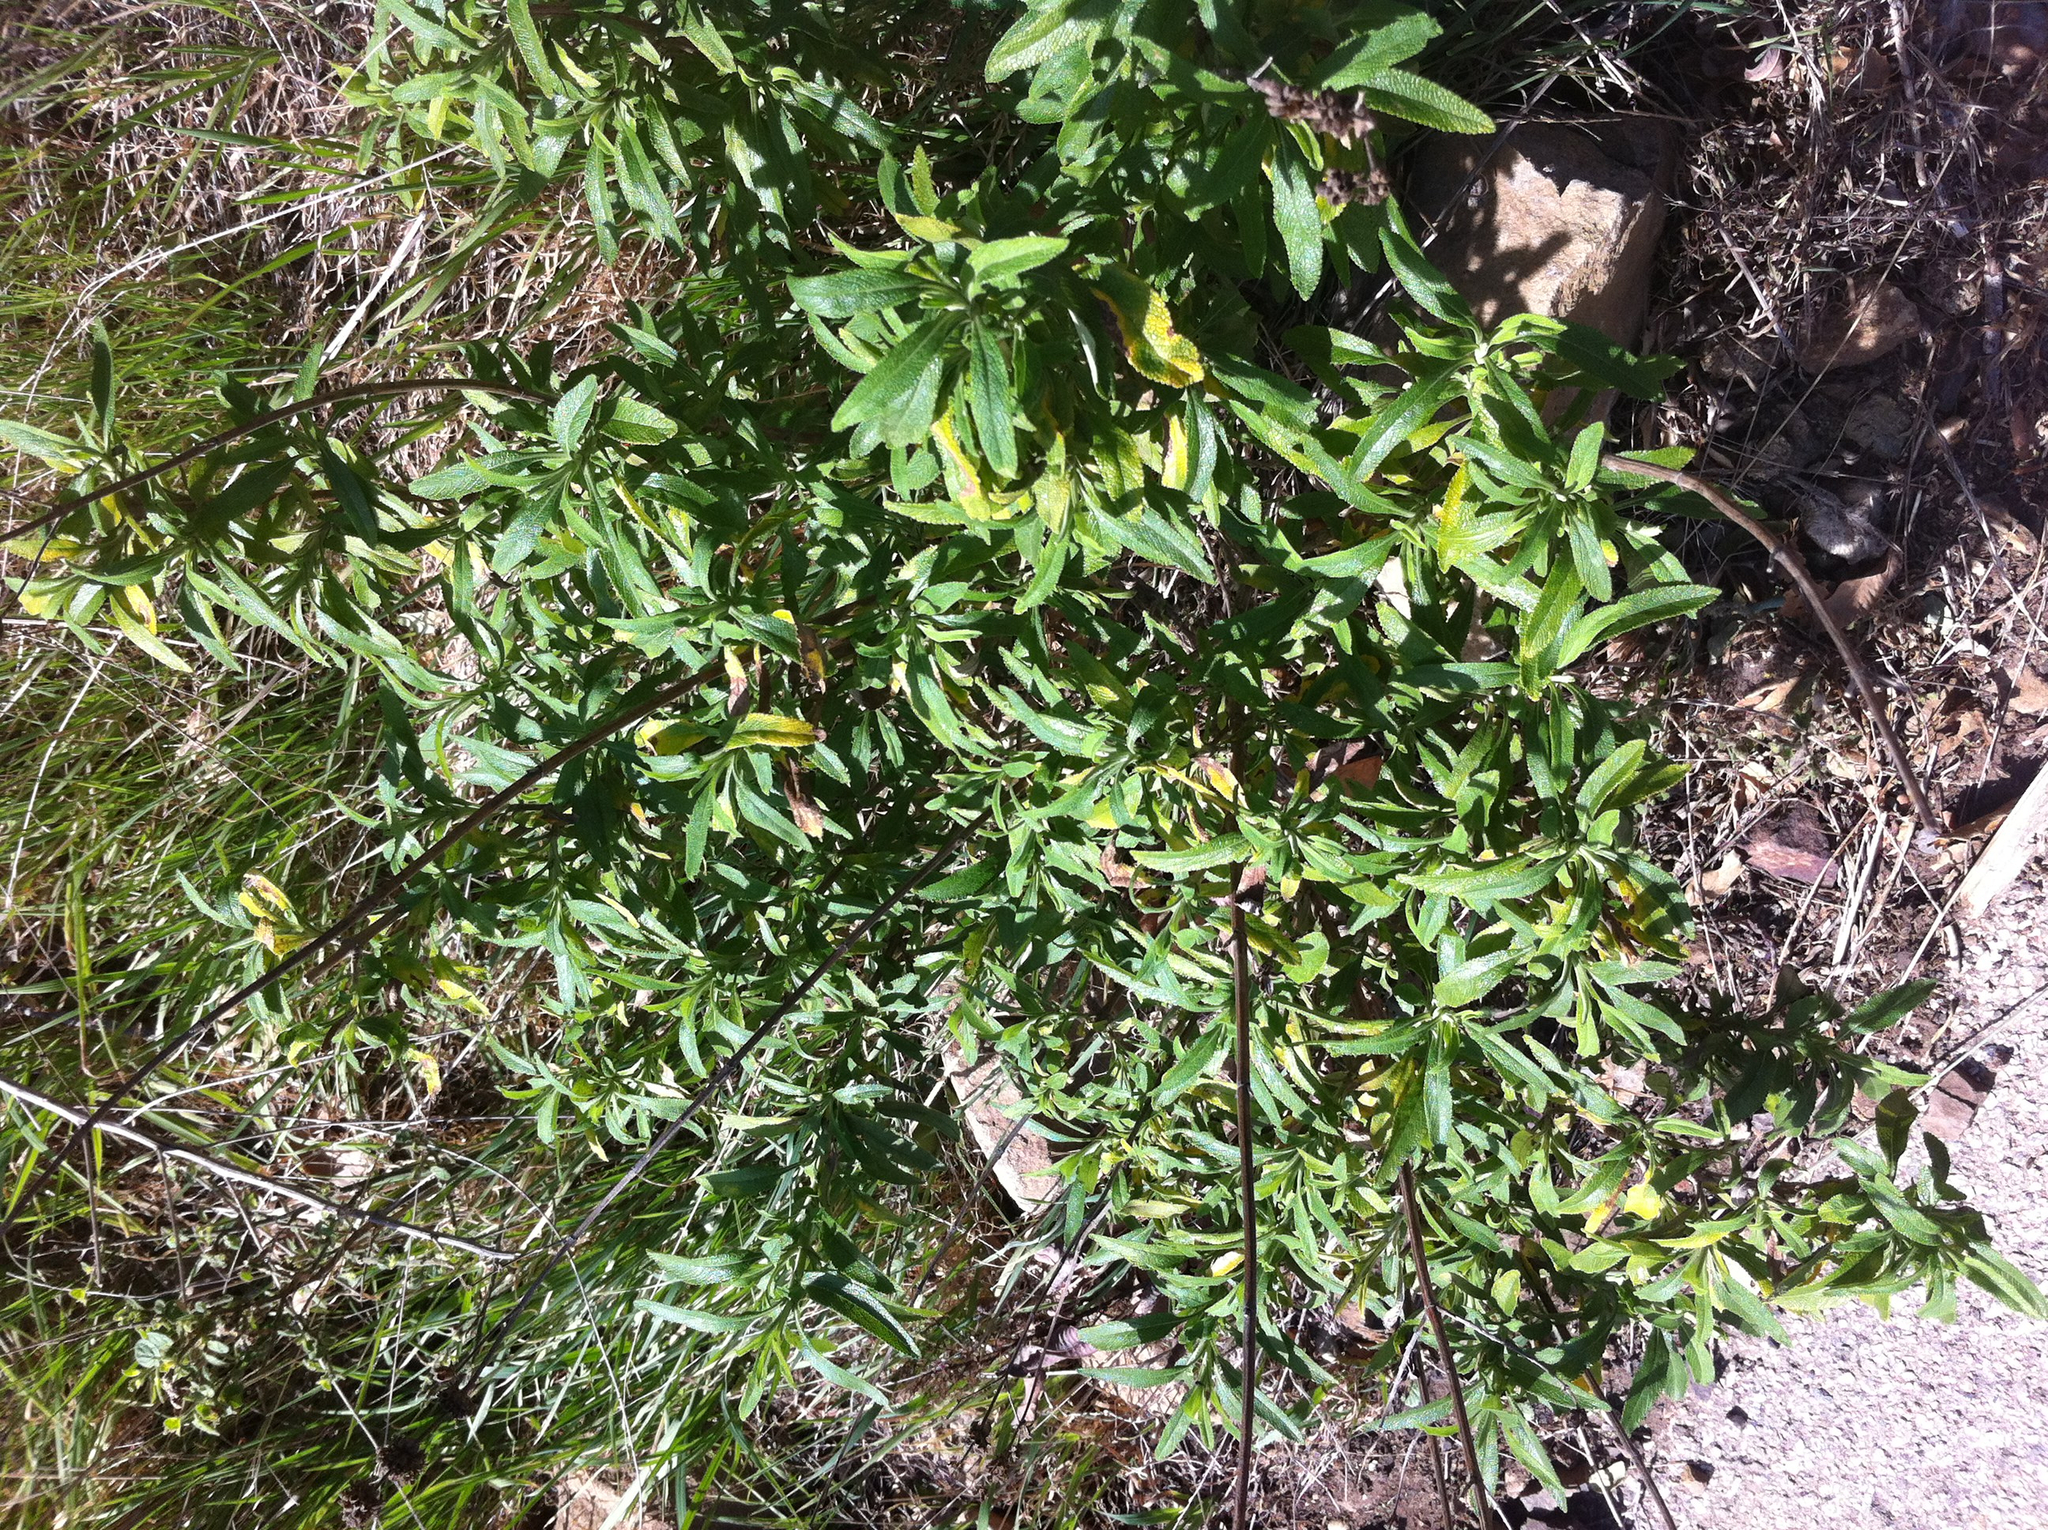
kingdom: Plantae
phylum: Tracheophyta
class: Magnoliopsida
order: Lamiales
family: Lamiaceae
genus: Salvia
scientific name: Salvia mellifera
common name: Black sage
